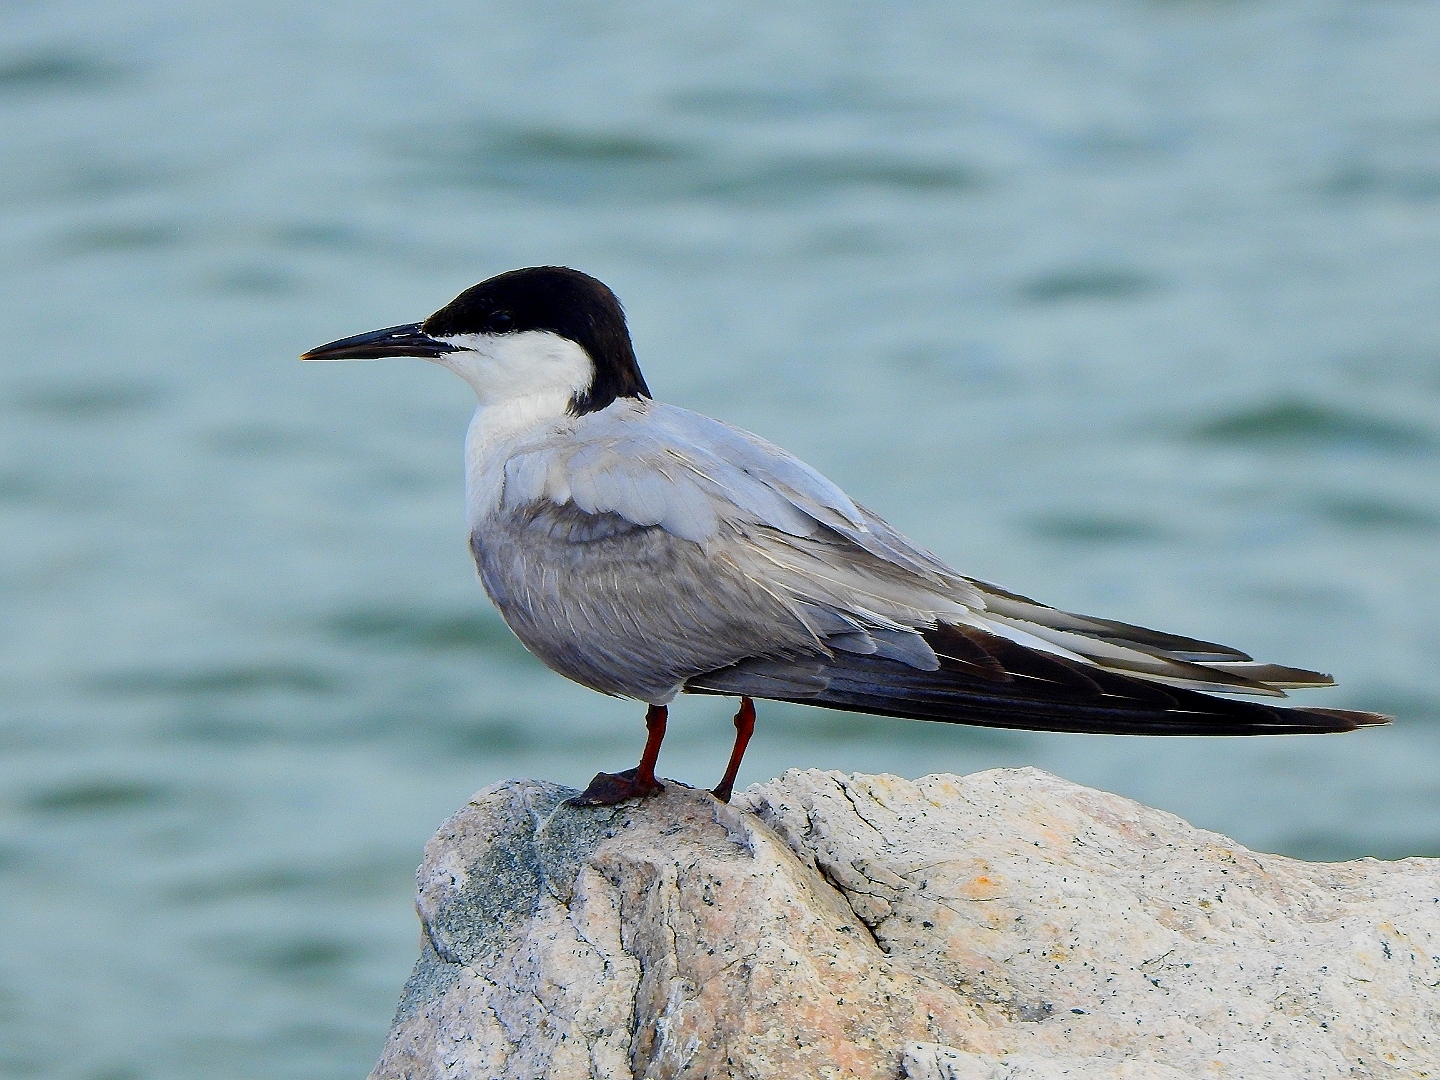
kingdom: Animalia
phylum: Chordata
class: Aves
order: Charadriiformes
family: Laridae
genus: Sterna
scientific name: Sterna hirundo
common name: Common tern
